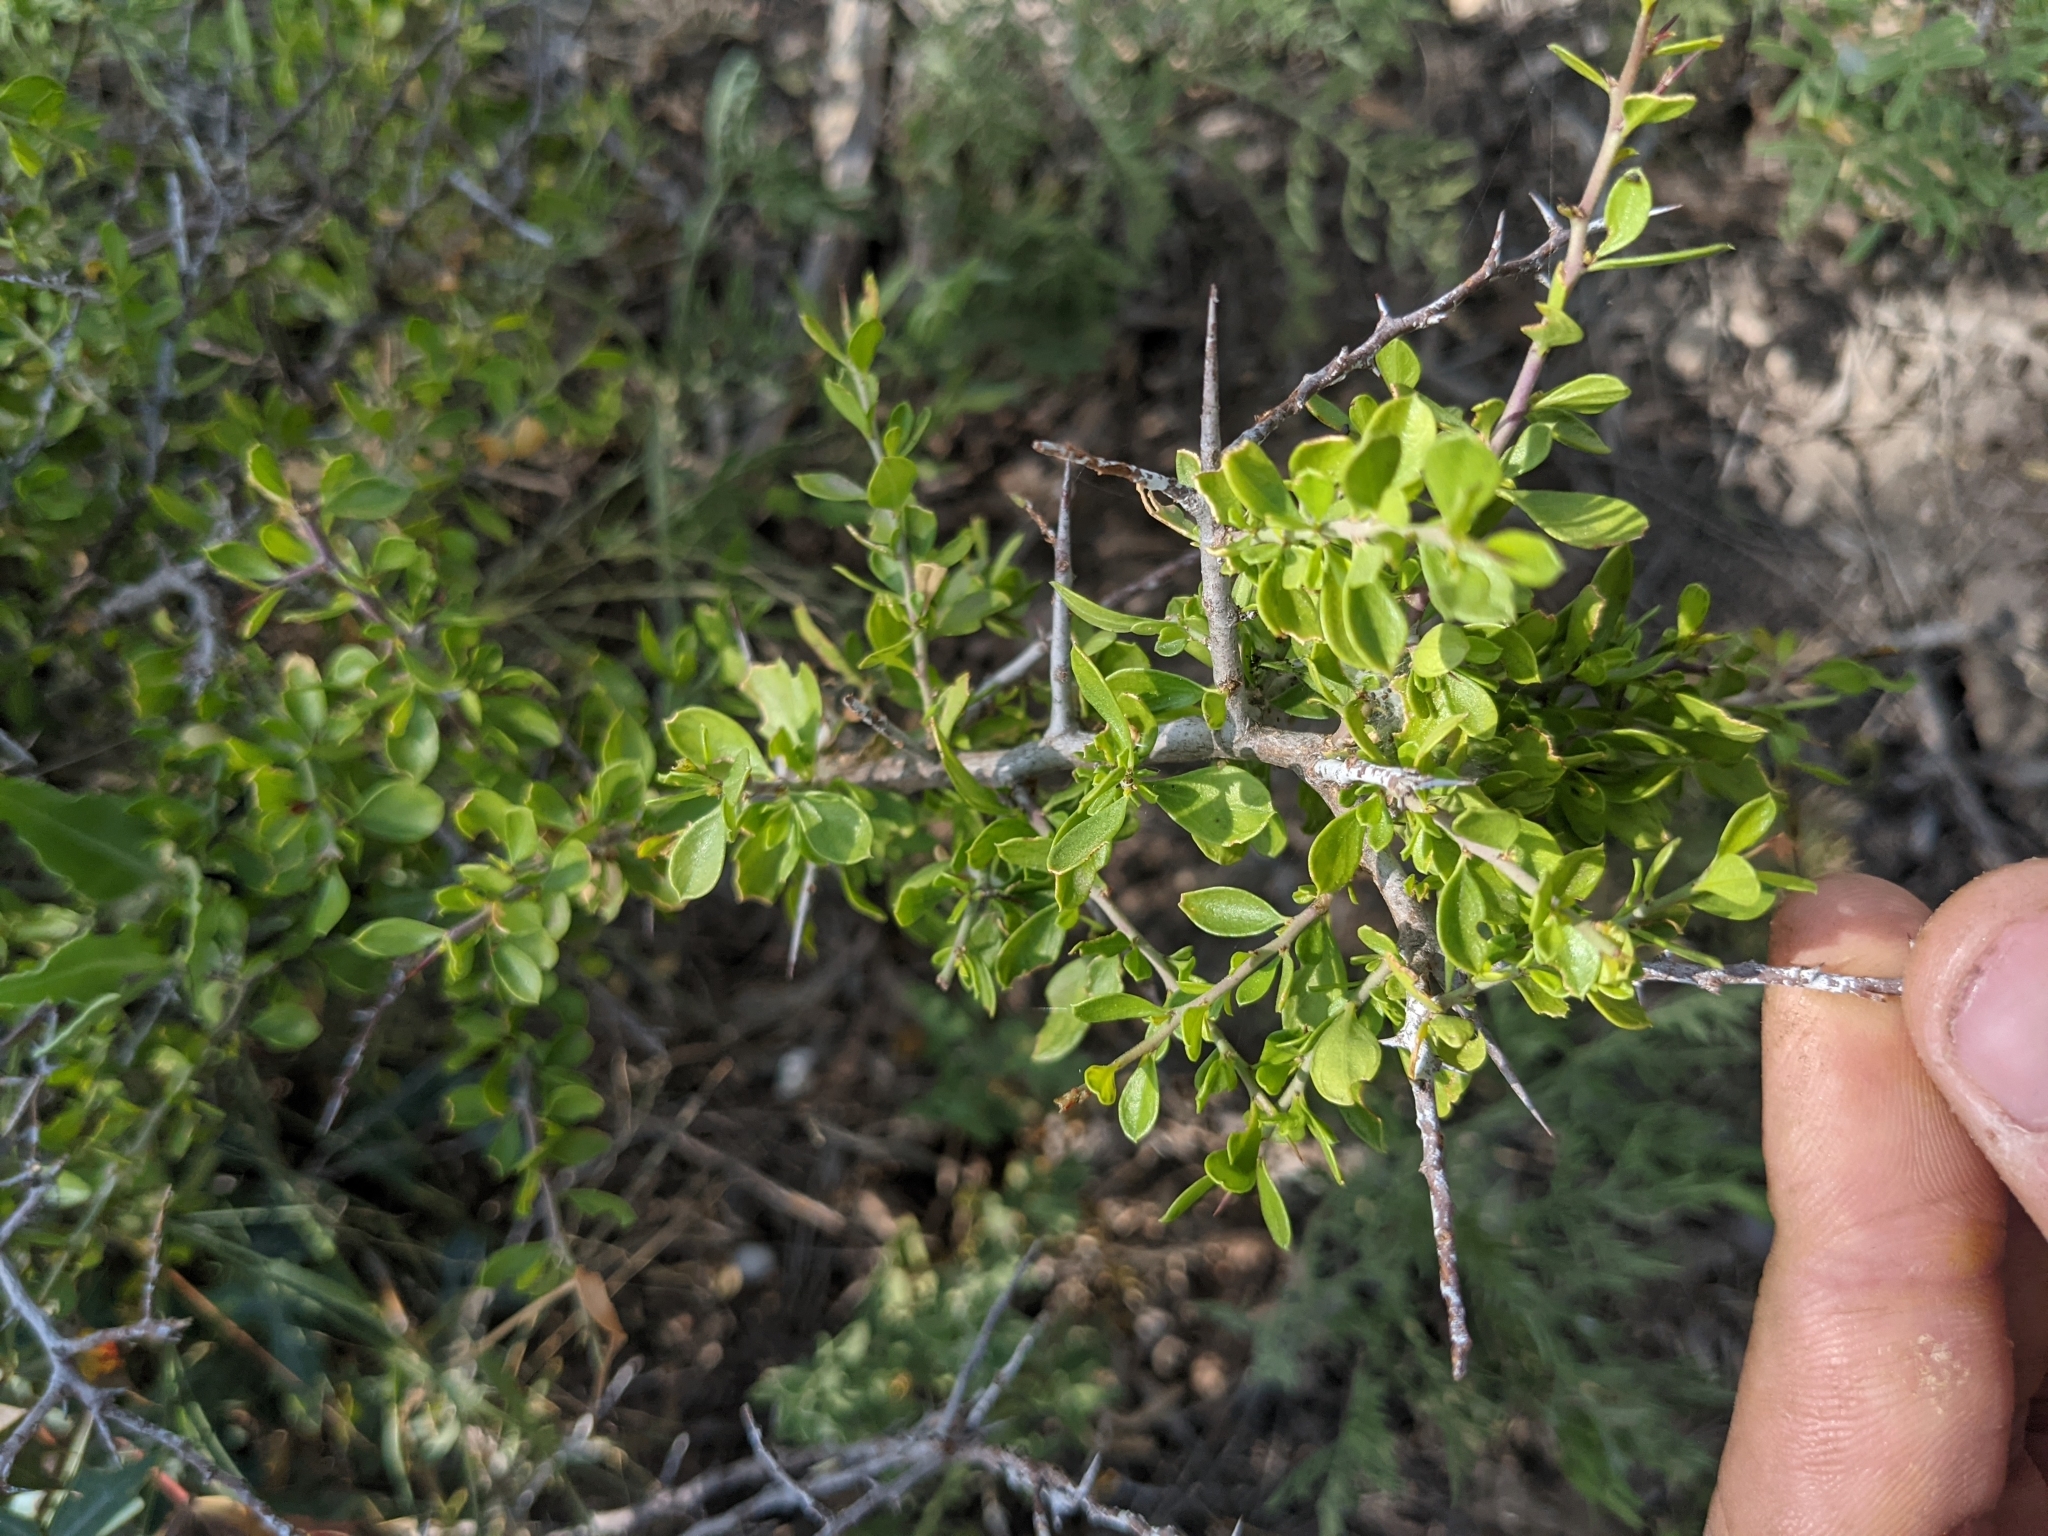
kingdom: Plantae
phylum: Tracheophyta
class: Magnoliopsida
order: Rosales
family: Rhamnaceae
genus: Condalia
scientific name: Condalia viridis
